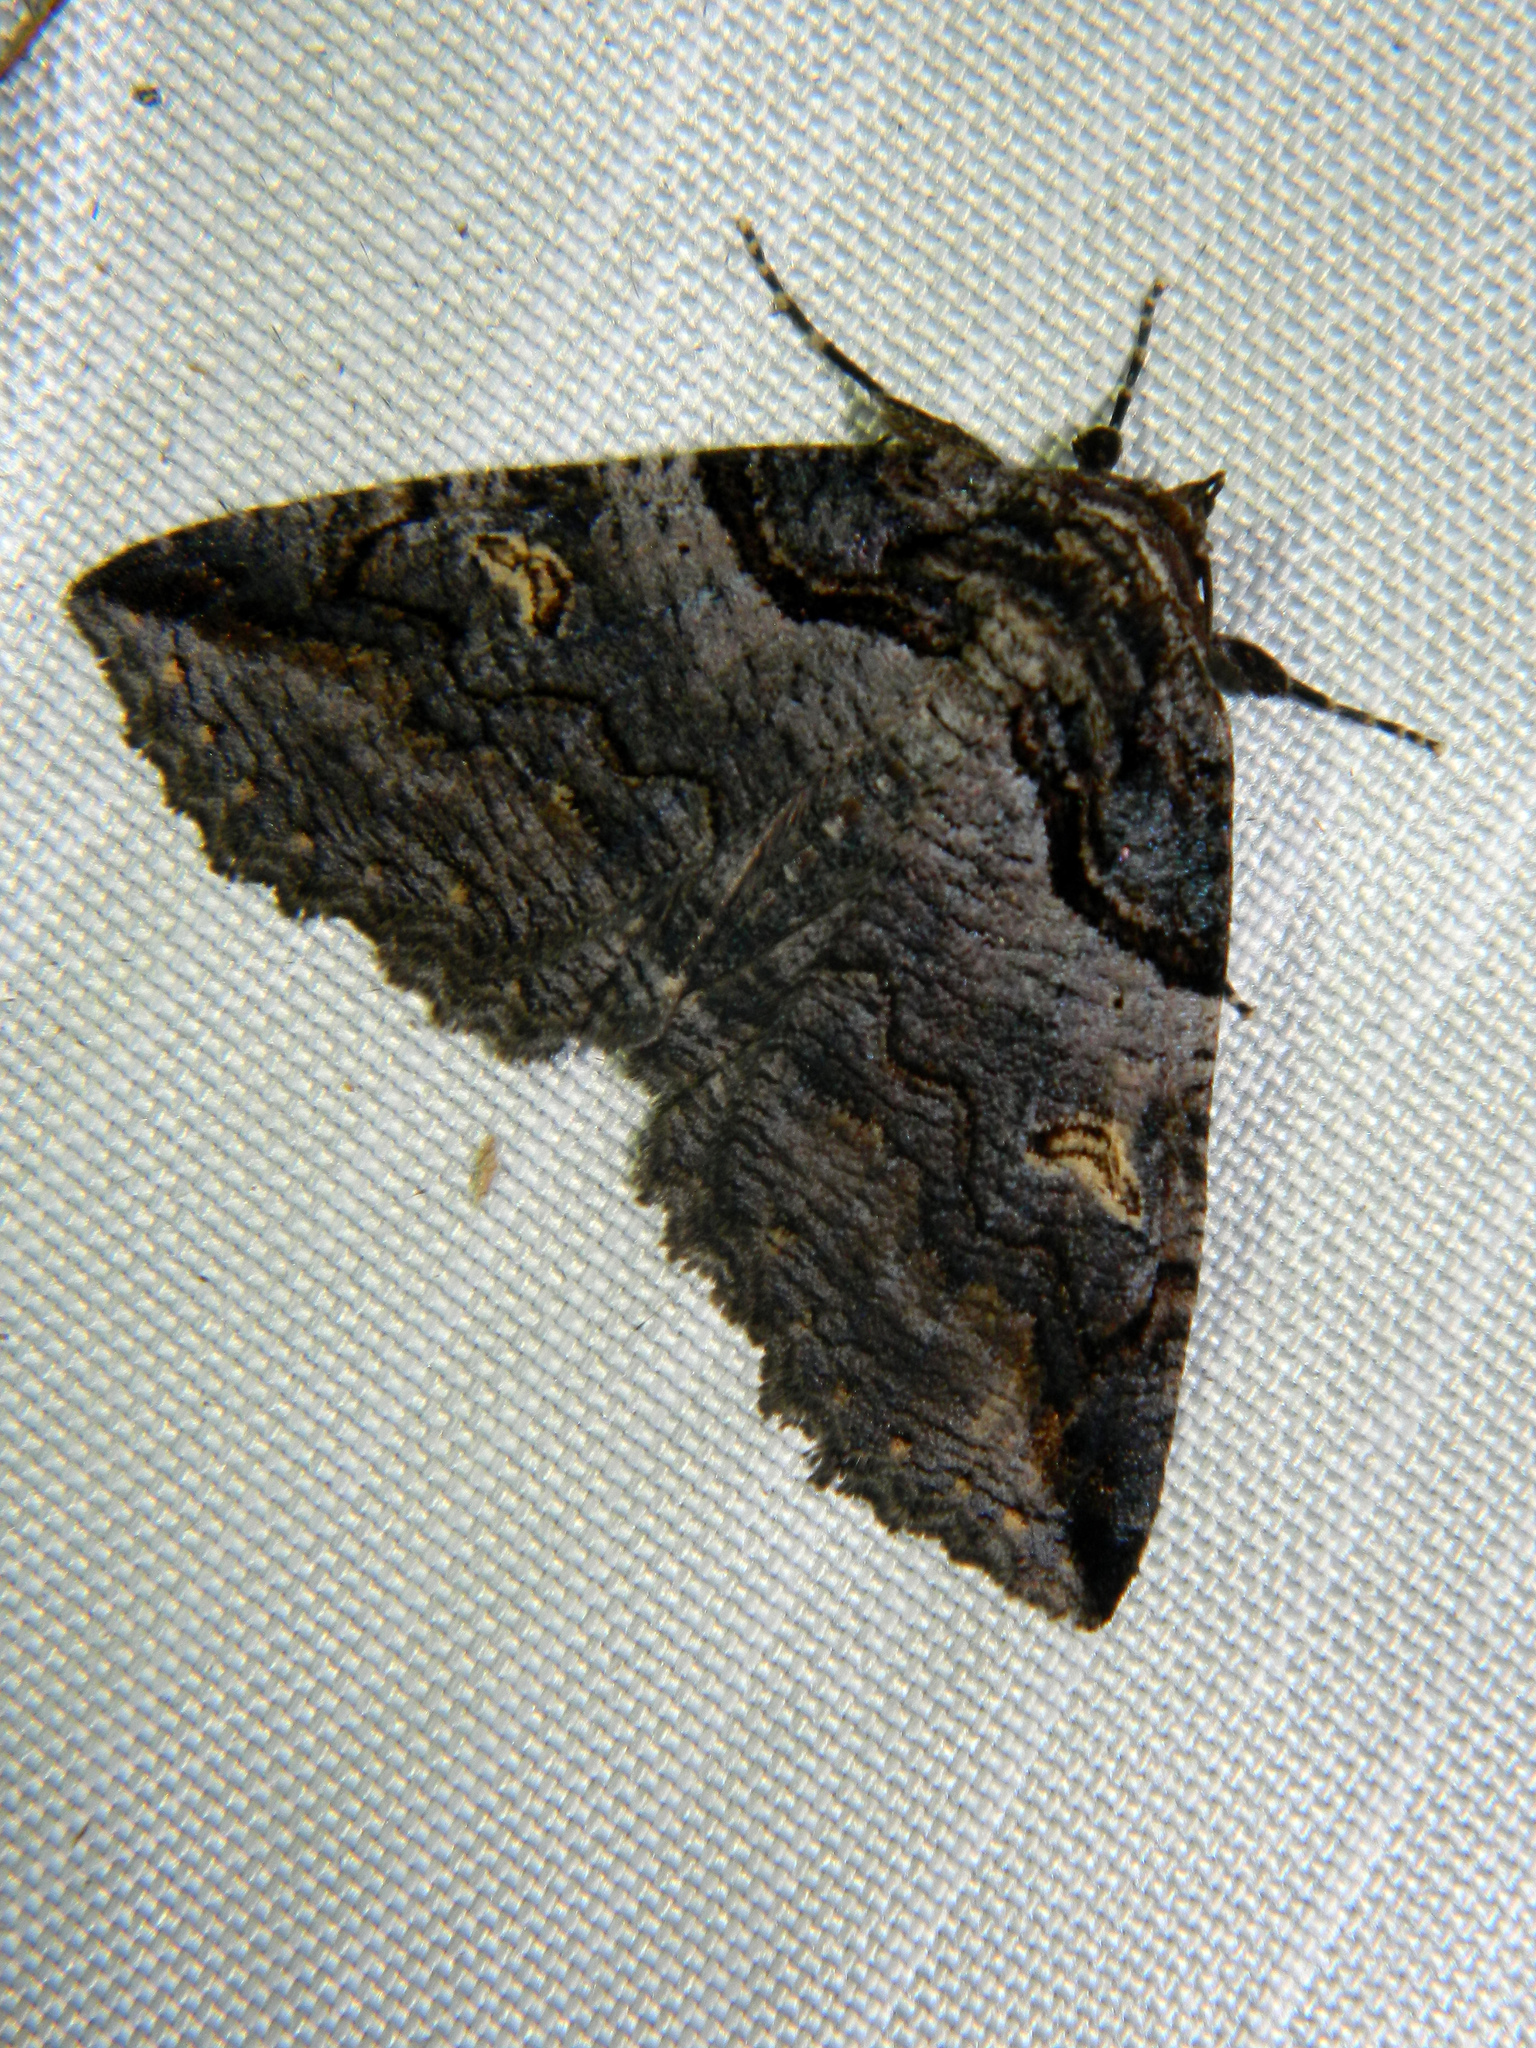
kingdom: Animalia
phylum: Arthropoda
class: Insecta
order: Lepidoptera
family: Erebidae
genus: Zale
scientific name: Zale intenta
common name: Intent zale moth
